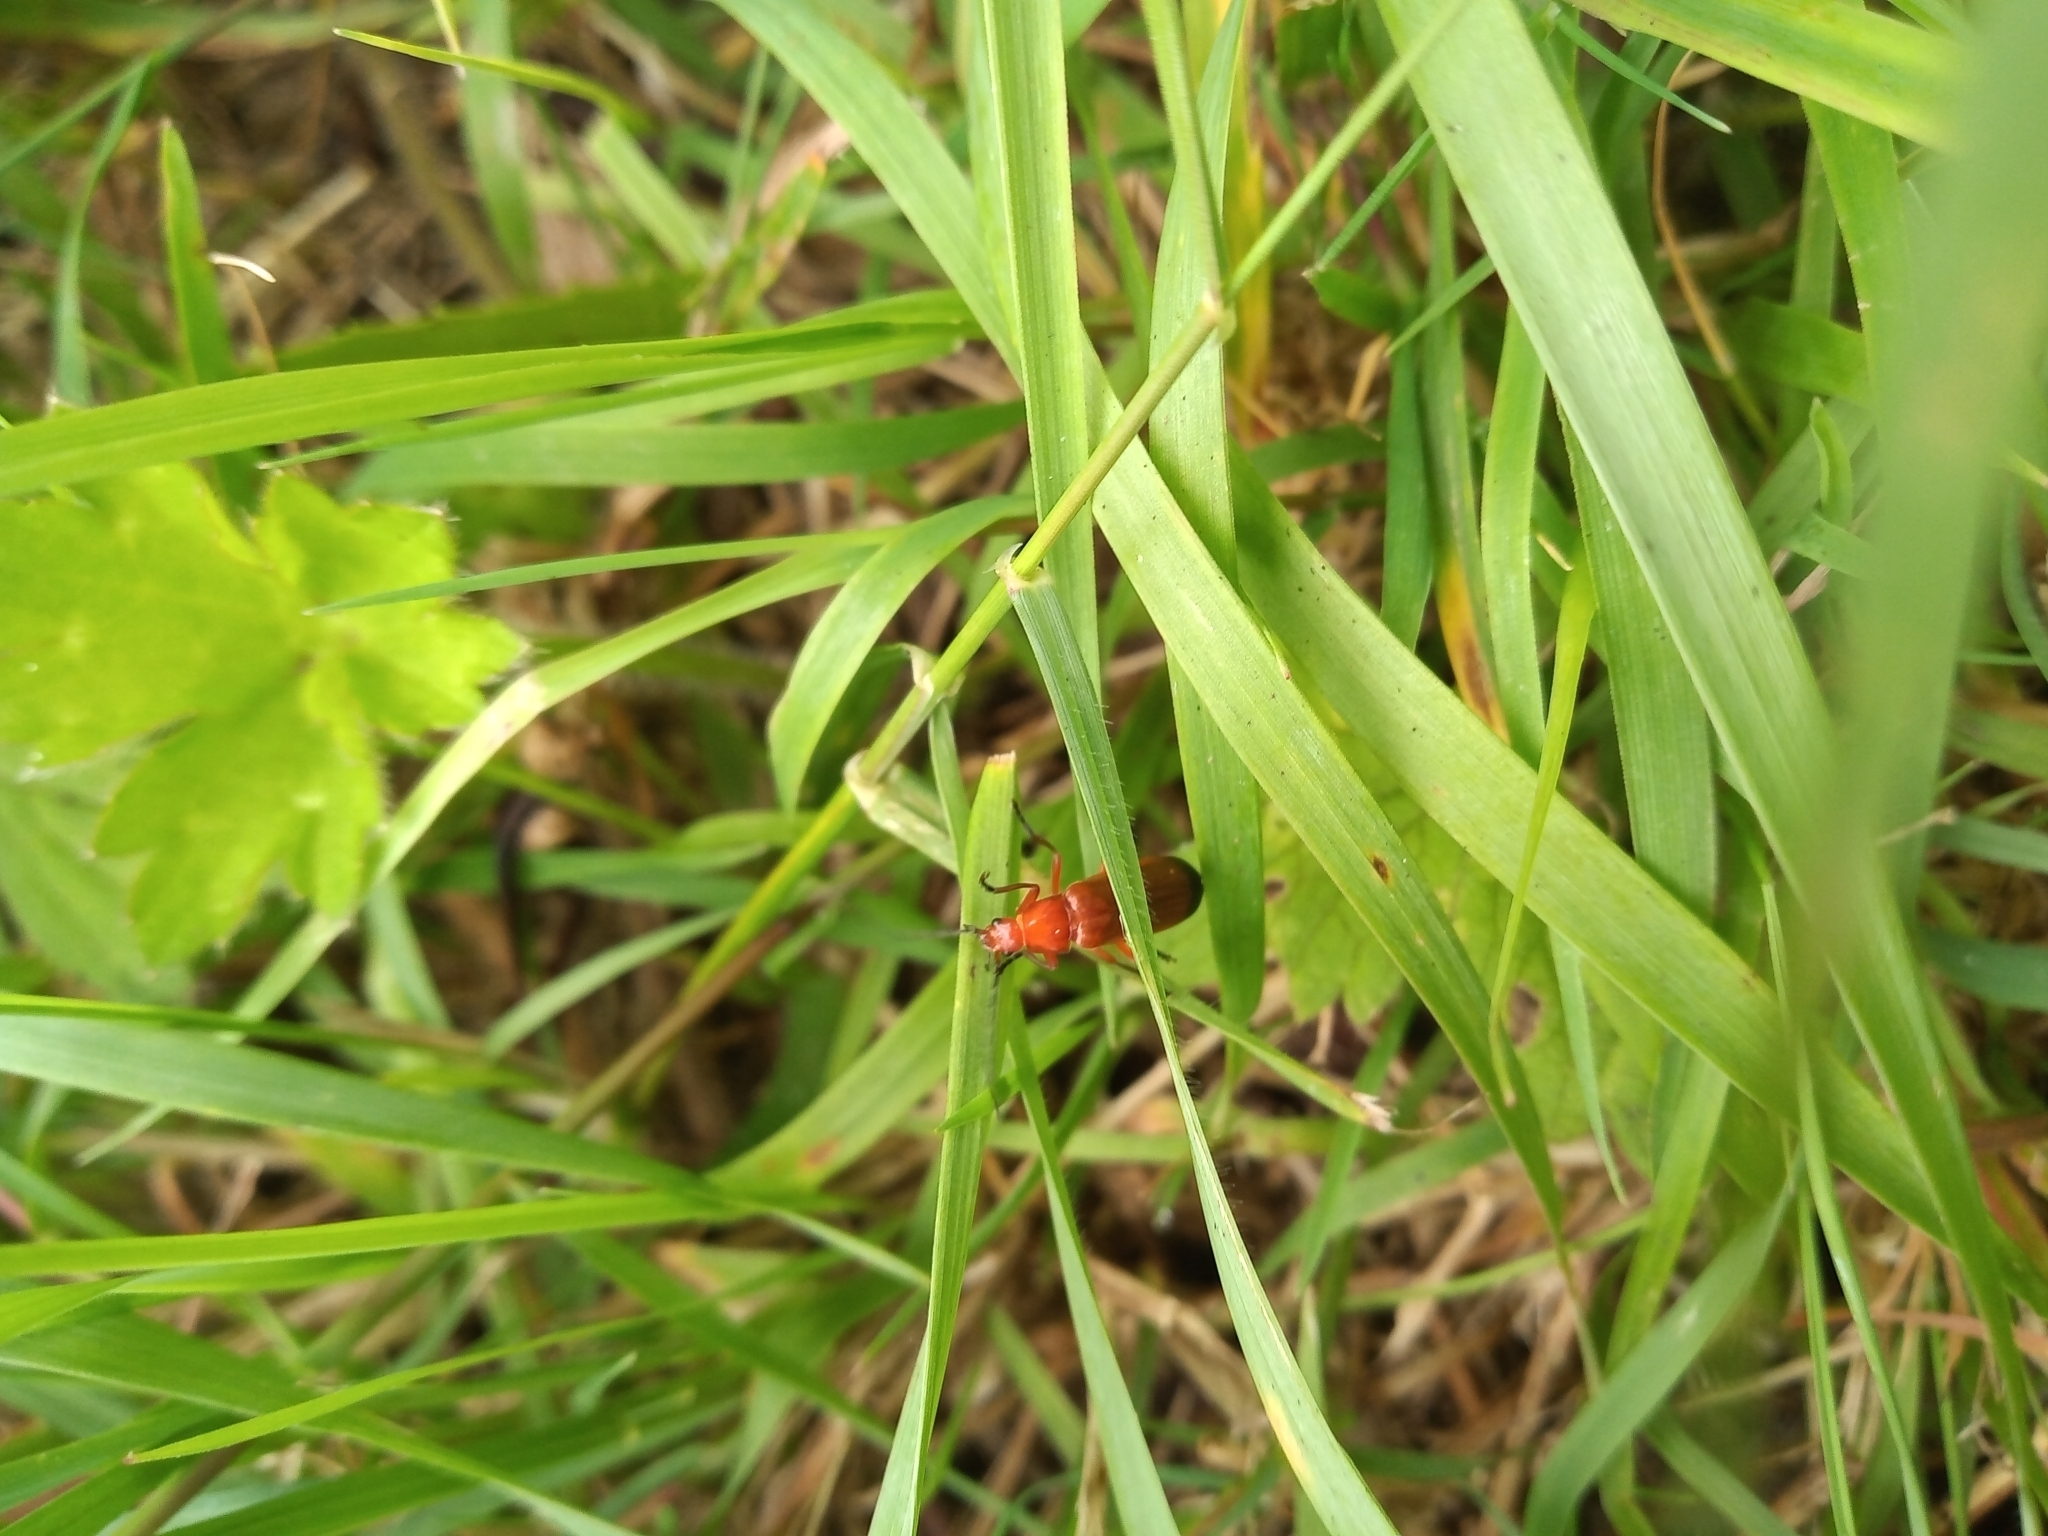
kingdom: Animalia
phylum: Arthropoda
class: Insecta
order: Coleoptera
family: Cantharidae
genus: Rhagonycha
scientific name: Rhagonycha fulva
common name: Common red soldier beetle
